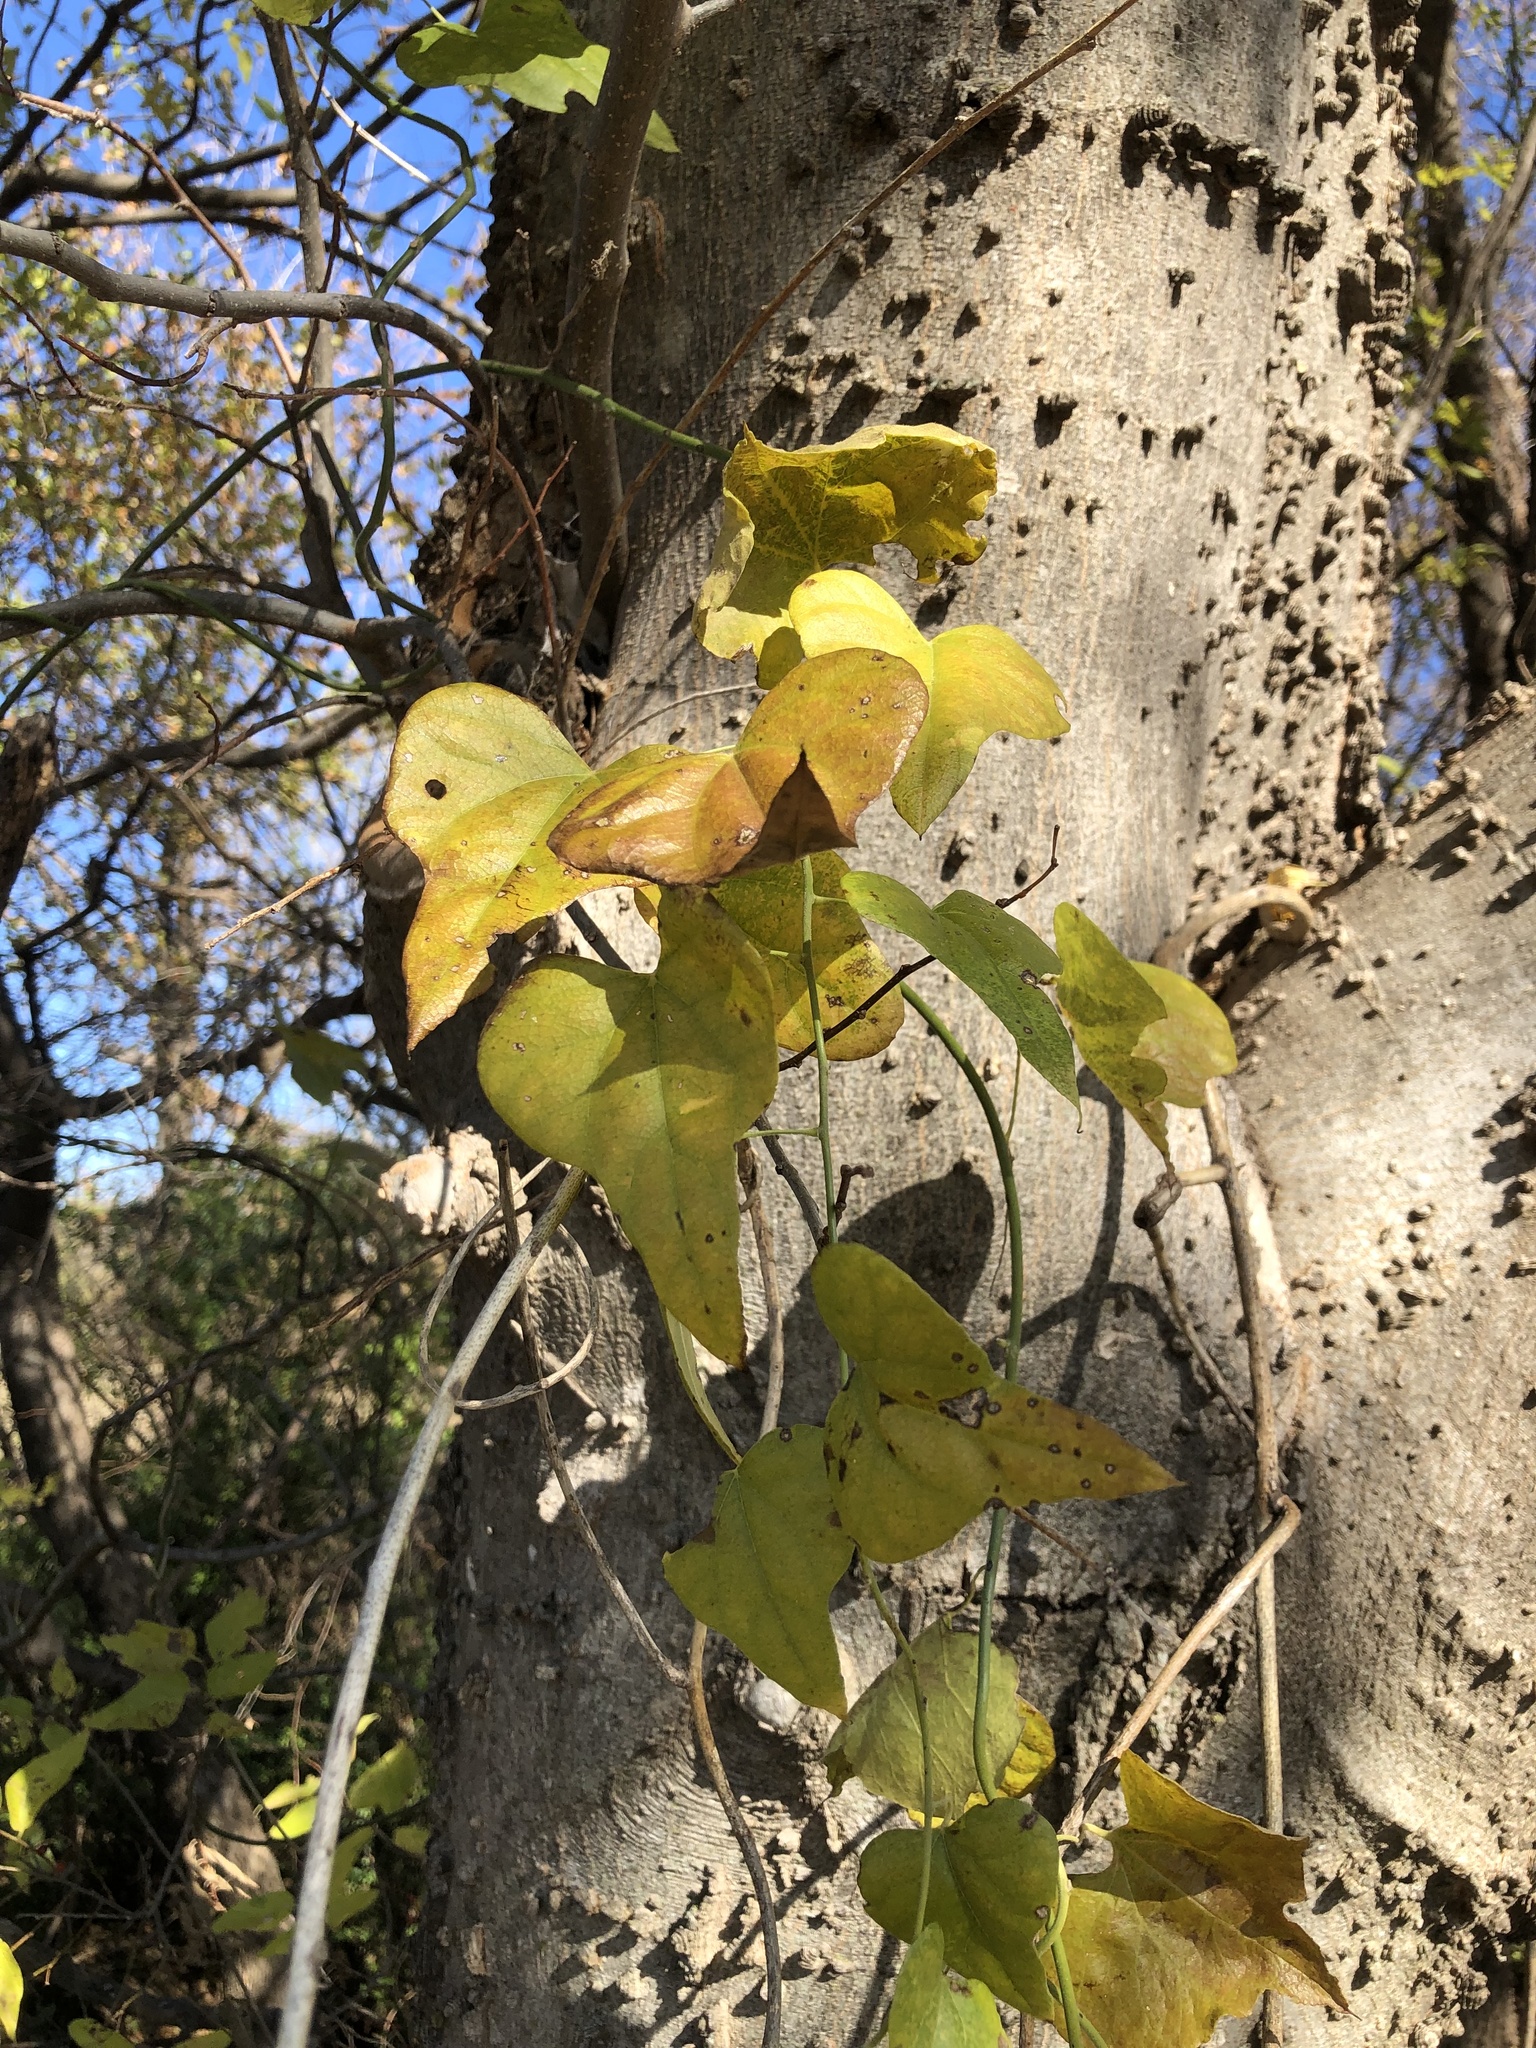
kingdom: Plantae
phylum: Tracheophyta
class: Magnoliopsida
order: Ranunculales
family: Menispermaceae
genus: Cocculus
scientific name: Cocculus carolinus
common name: Carolina moonseed
